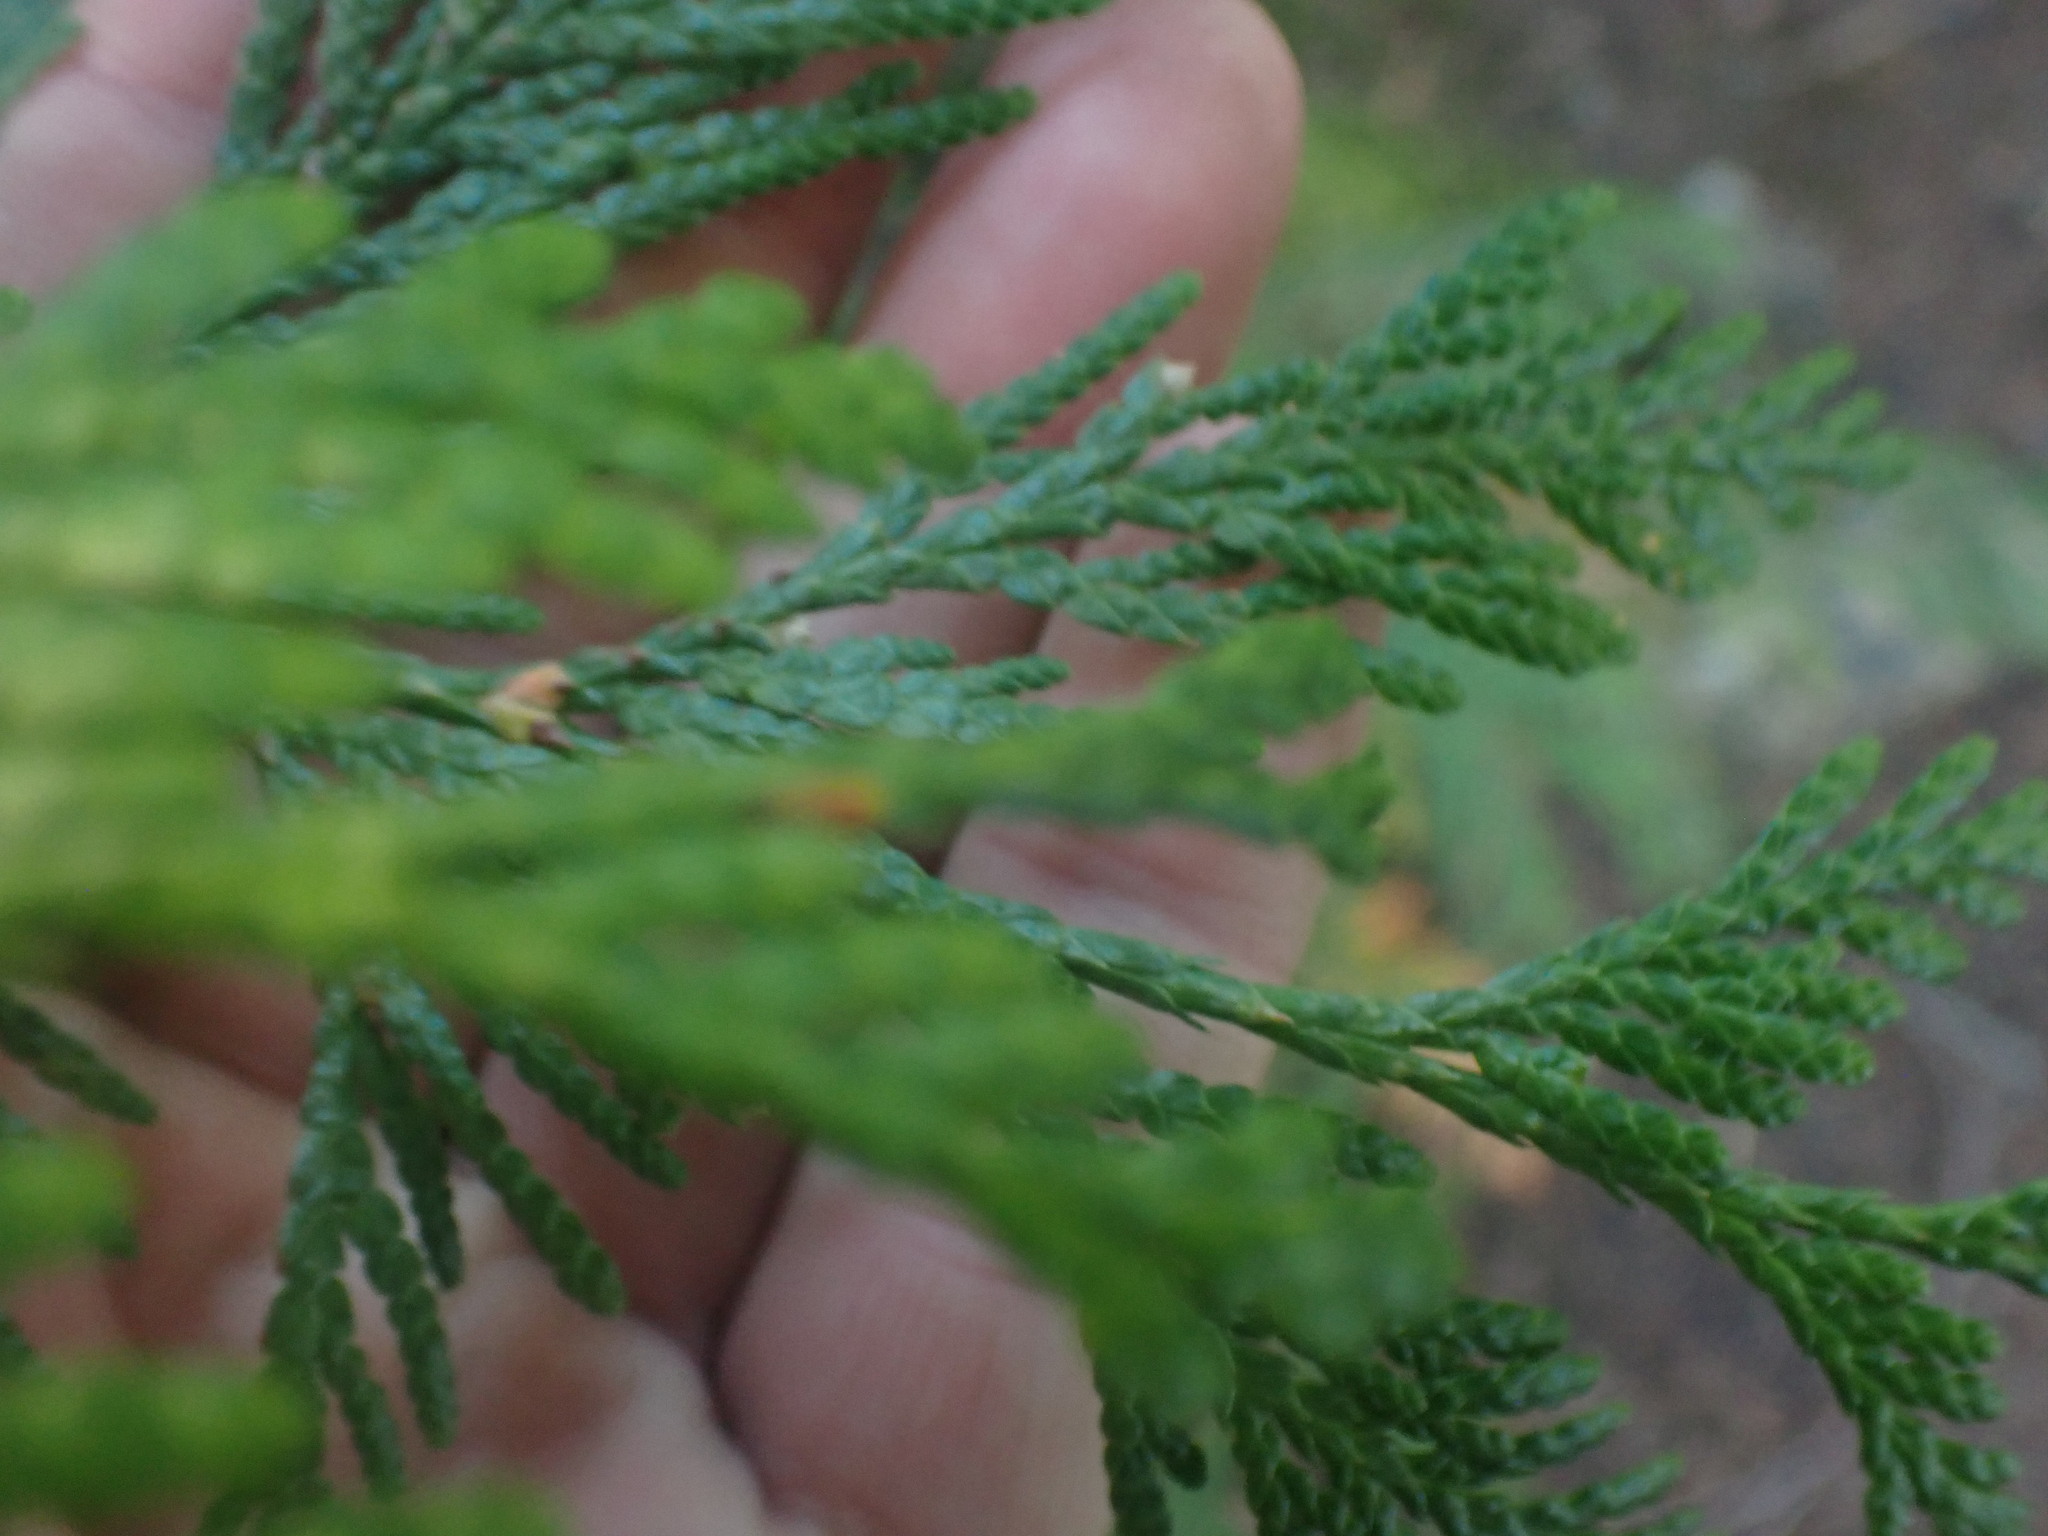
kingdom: Plantae
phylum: Tracheophyta
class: Pinopsida
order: Pinales
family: Cupressaceae
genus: Thuja
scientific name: Thuja plicata
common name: Western red-cedar
